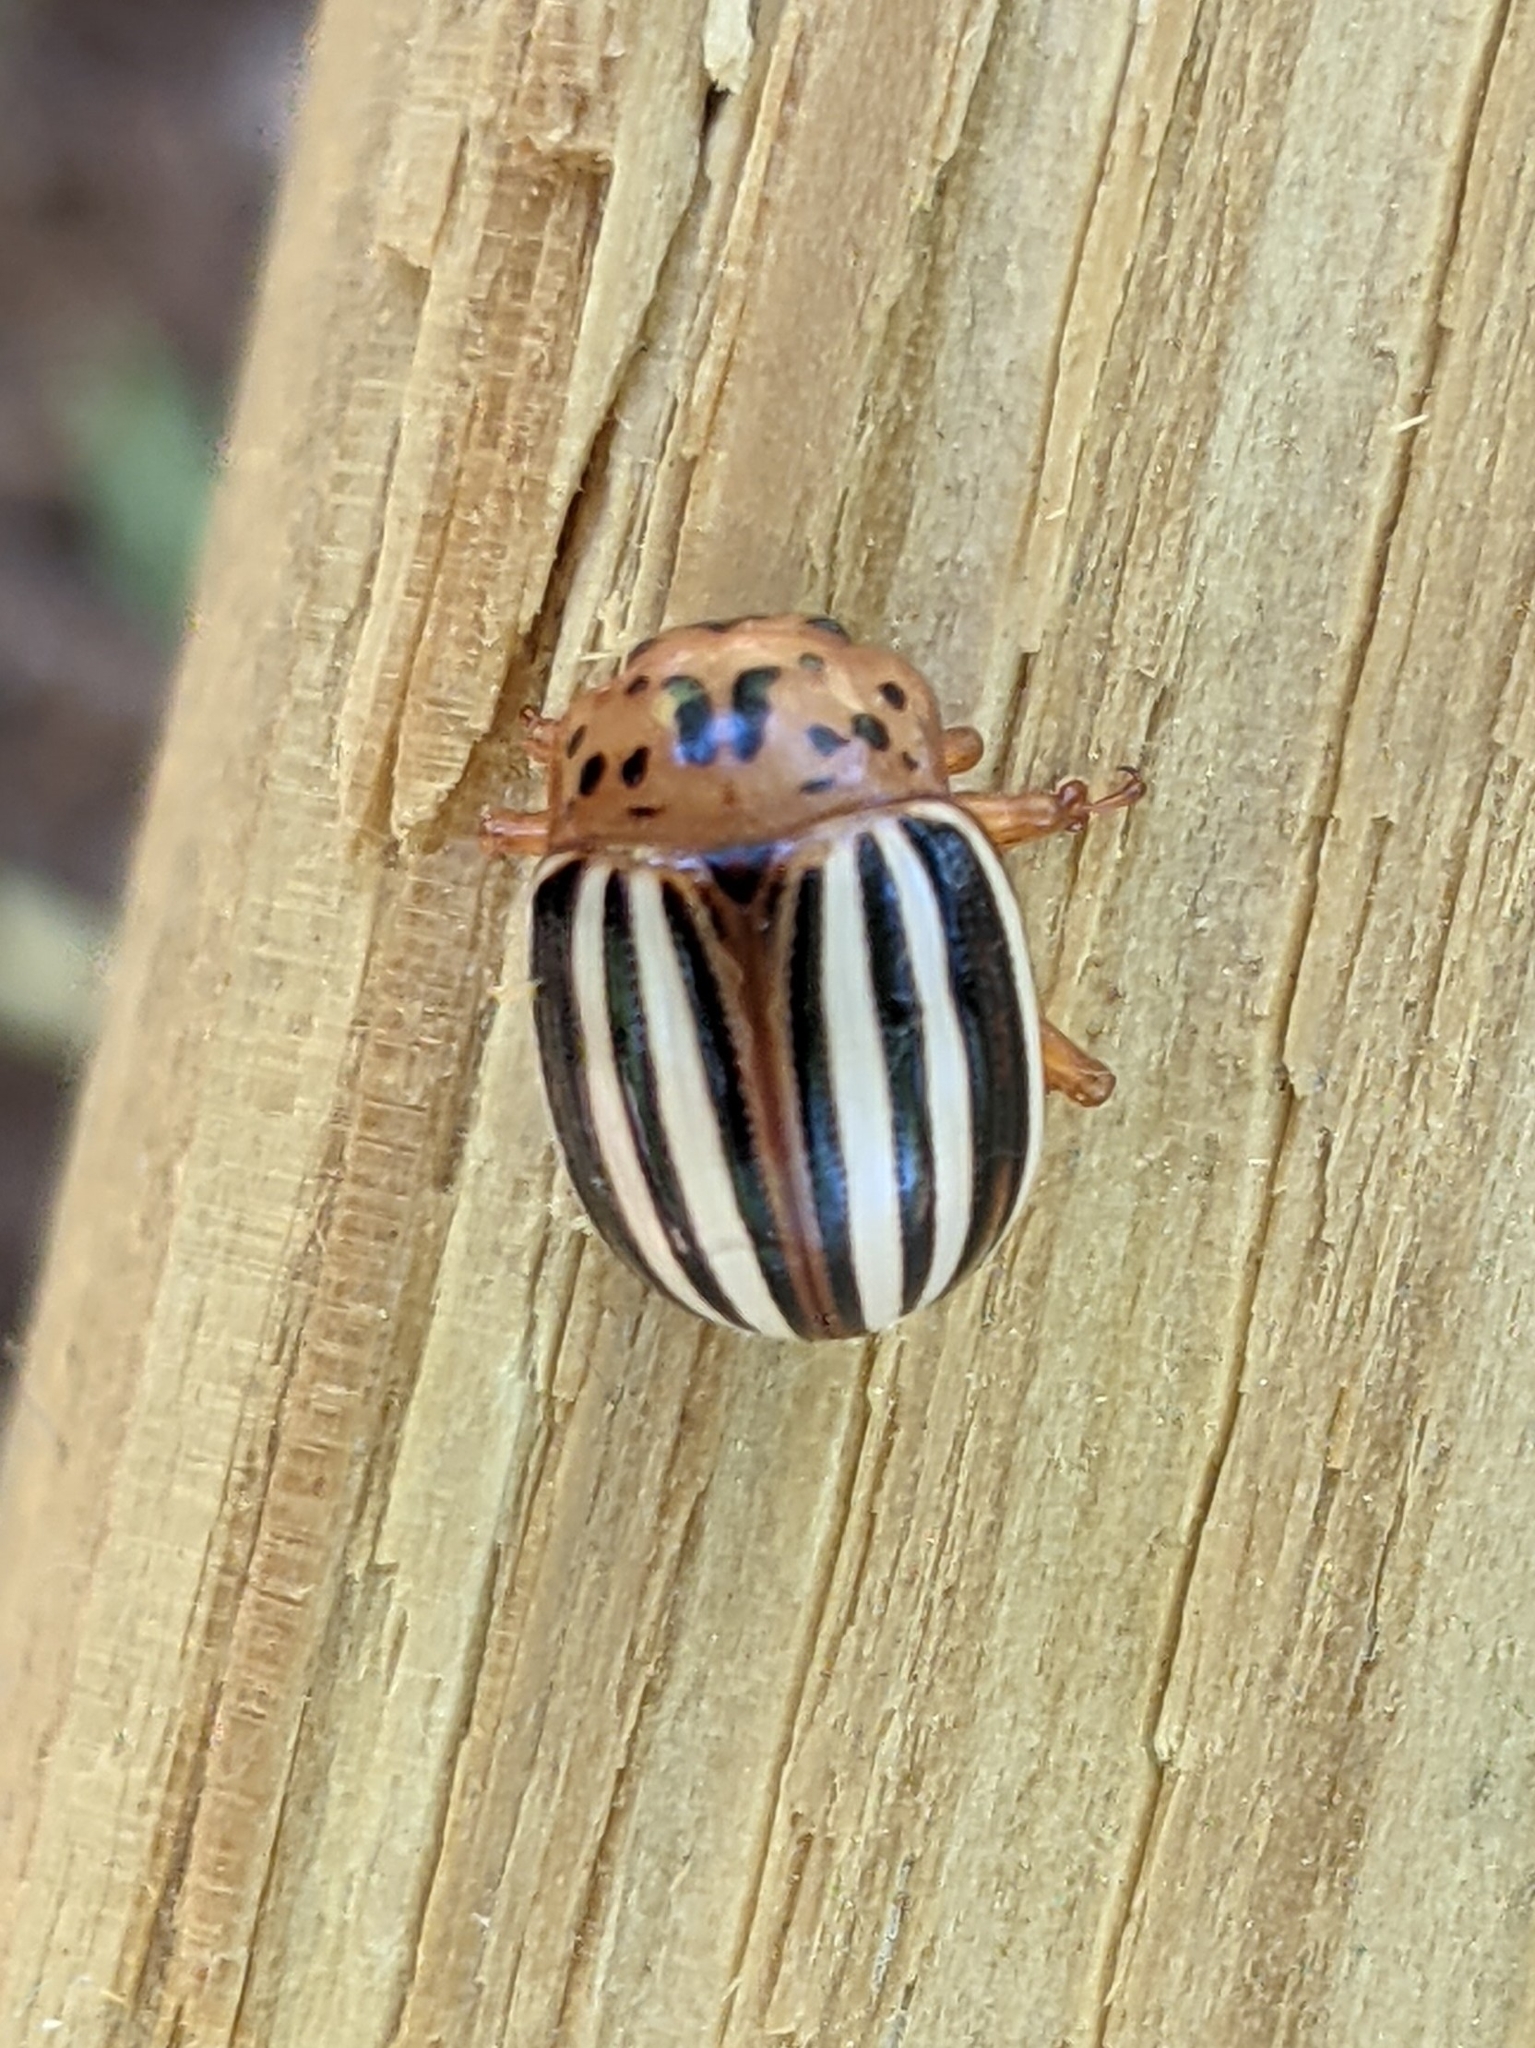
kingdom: Animalia
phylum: Arthropoda
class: Insecta
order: Coleoptera
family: Chrysomelidae
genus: Leptinotarsa
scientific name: Leptinotarsa juncta
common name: False potato beetle
